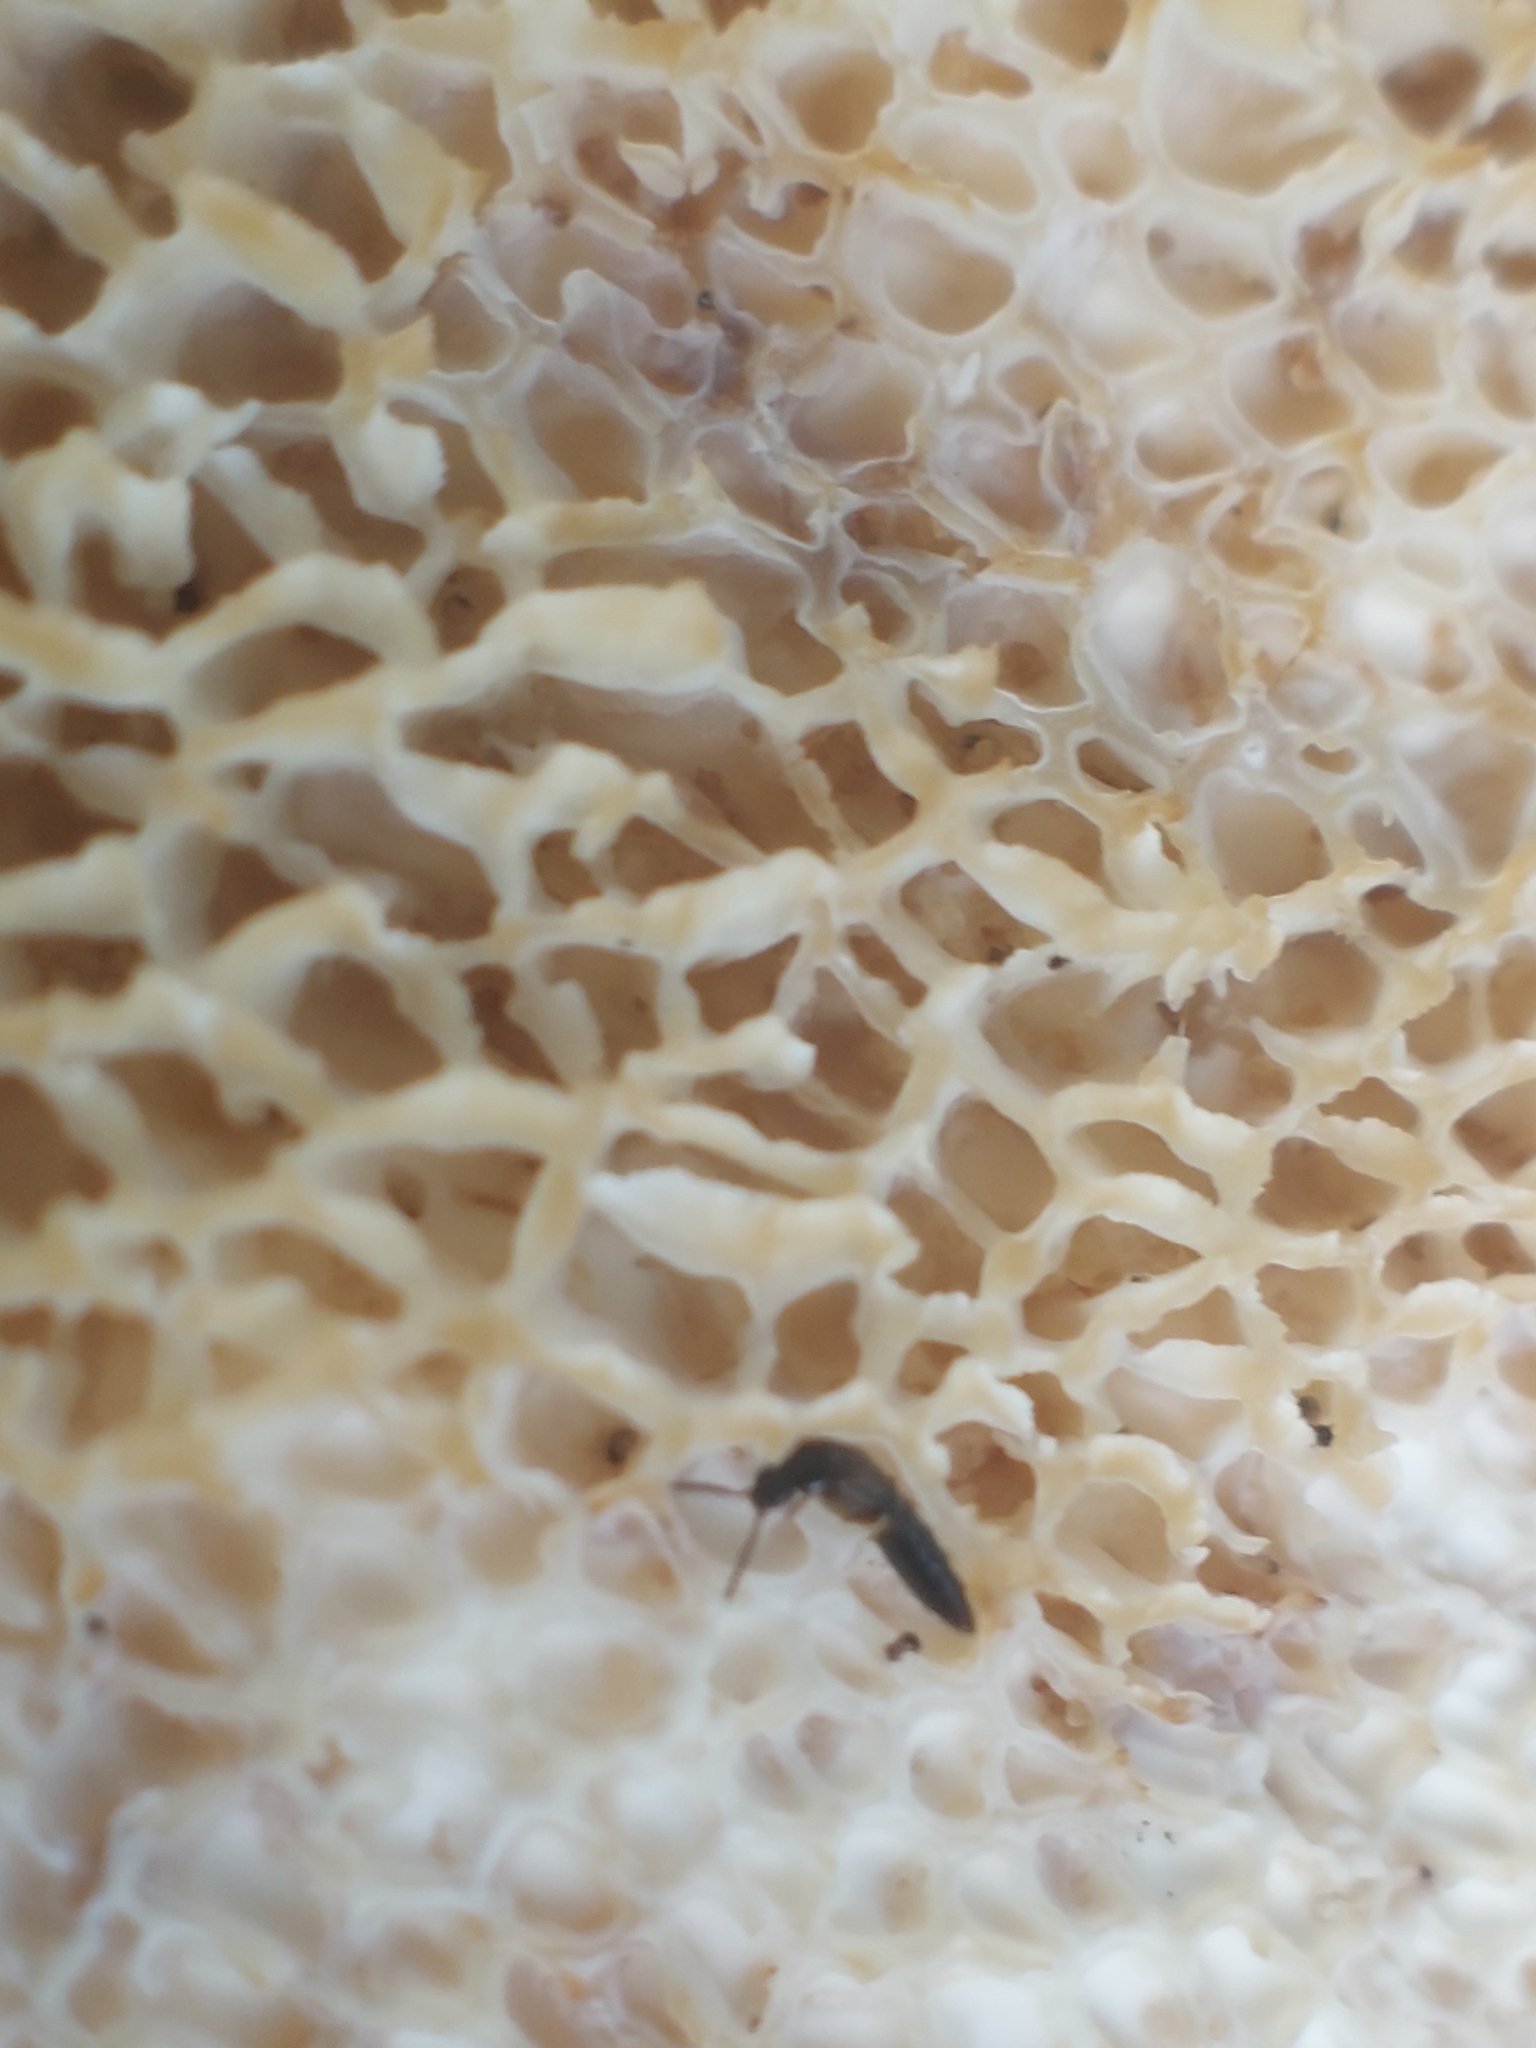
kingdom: Fungi
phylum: Basidiomycota
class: Agaricomycetes
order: Polyporales
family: Polyporaceae
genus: Cerioporus
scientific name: Cerioporus squamosus
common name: Dryad's saddle
